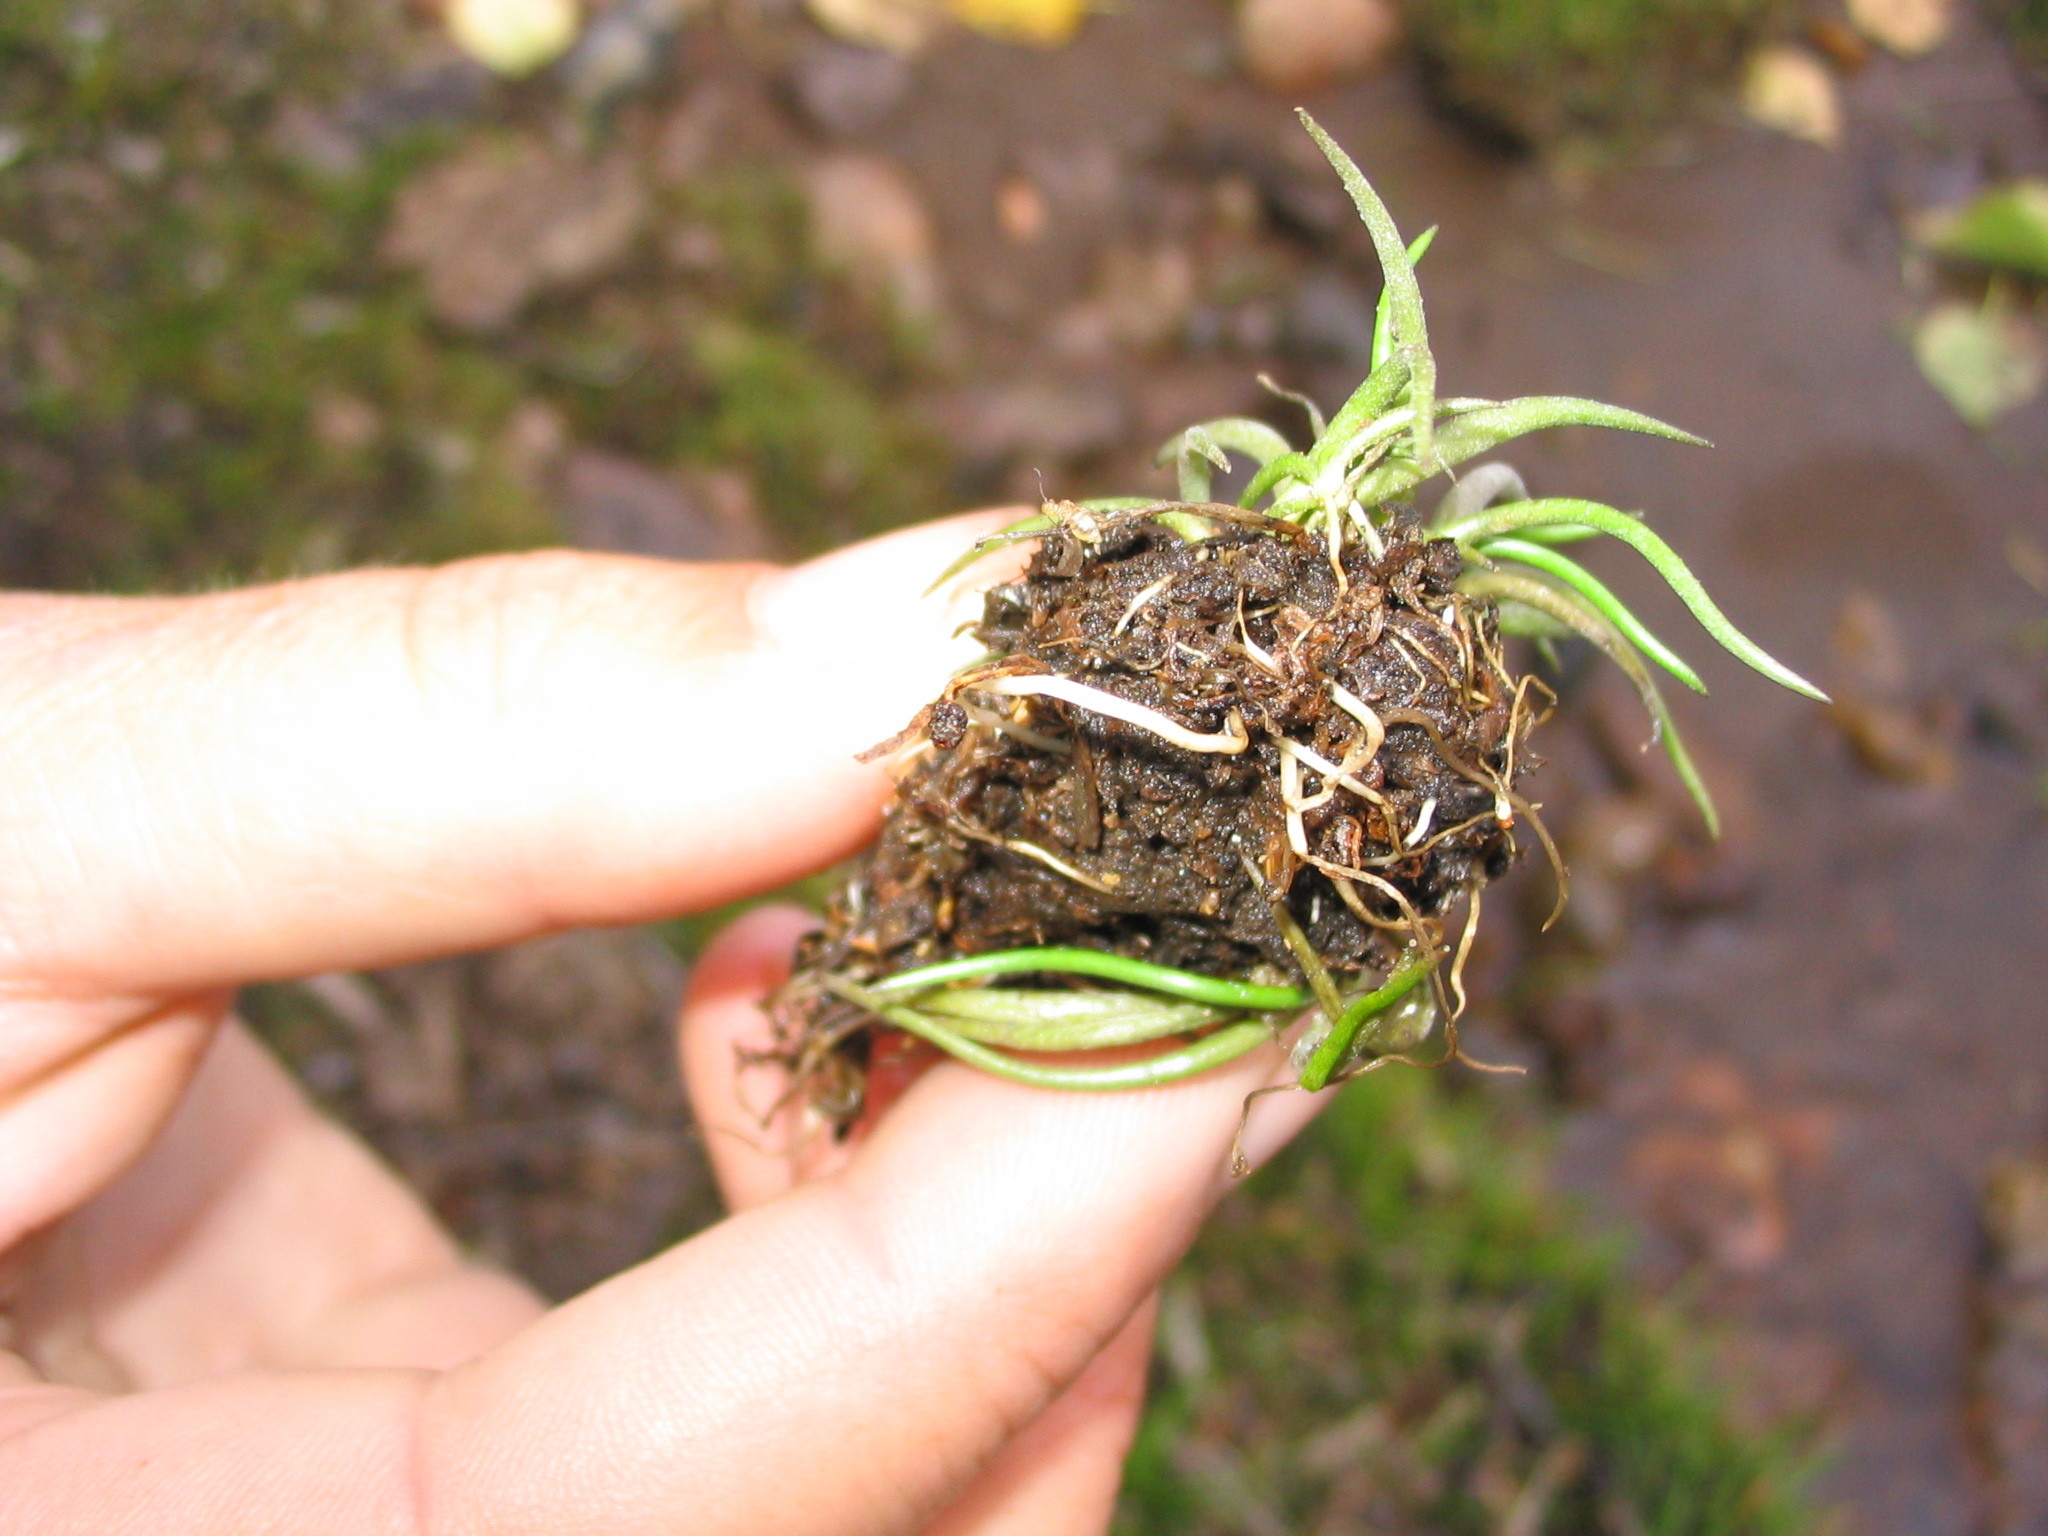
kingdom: Plantae
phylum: Tracheophyta
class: Magnoliopsida
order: Lamiales
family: Plantaginaceae
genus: Littorella
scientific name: Littorella americana
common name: American littorella
